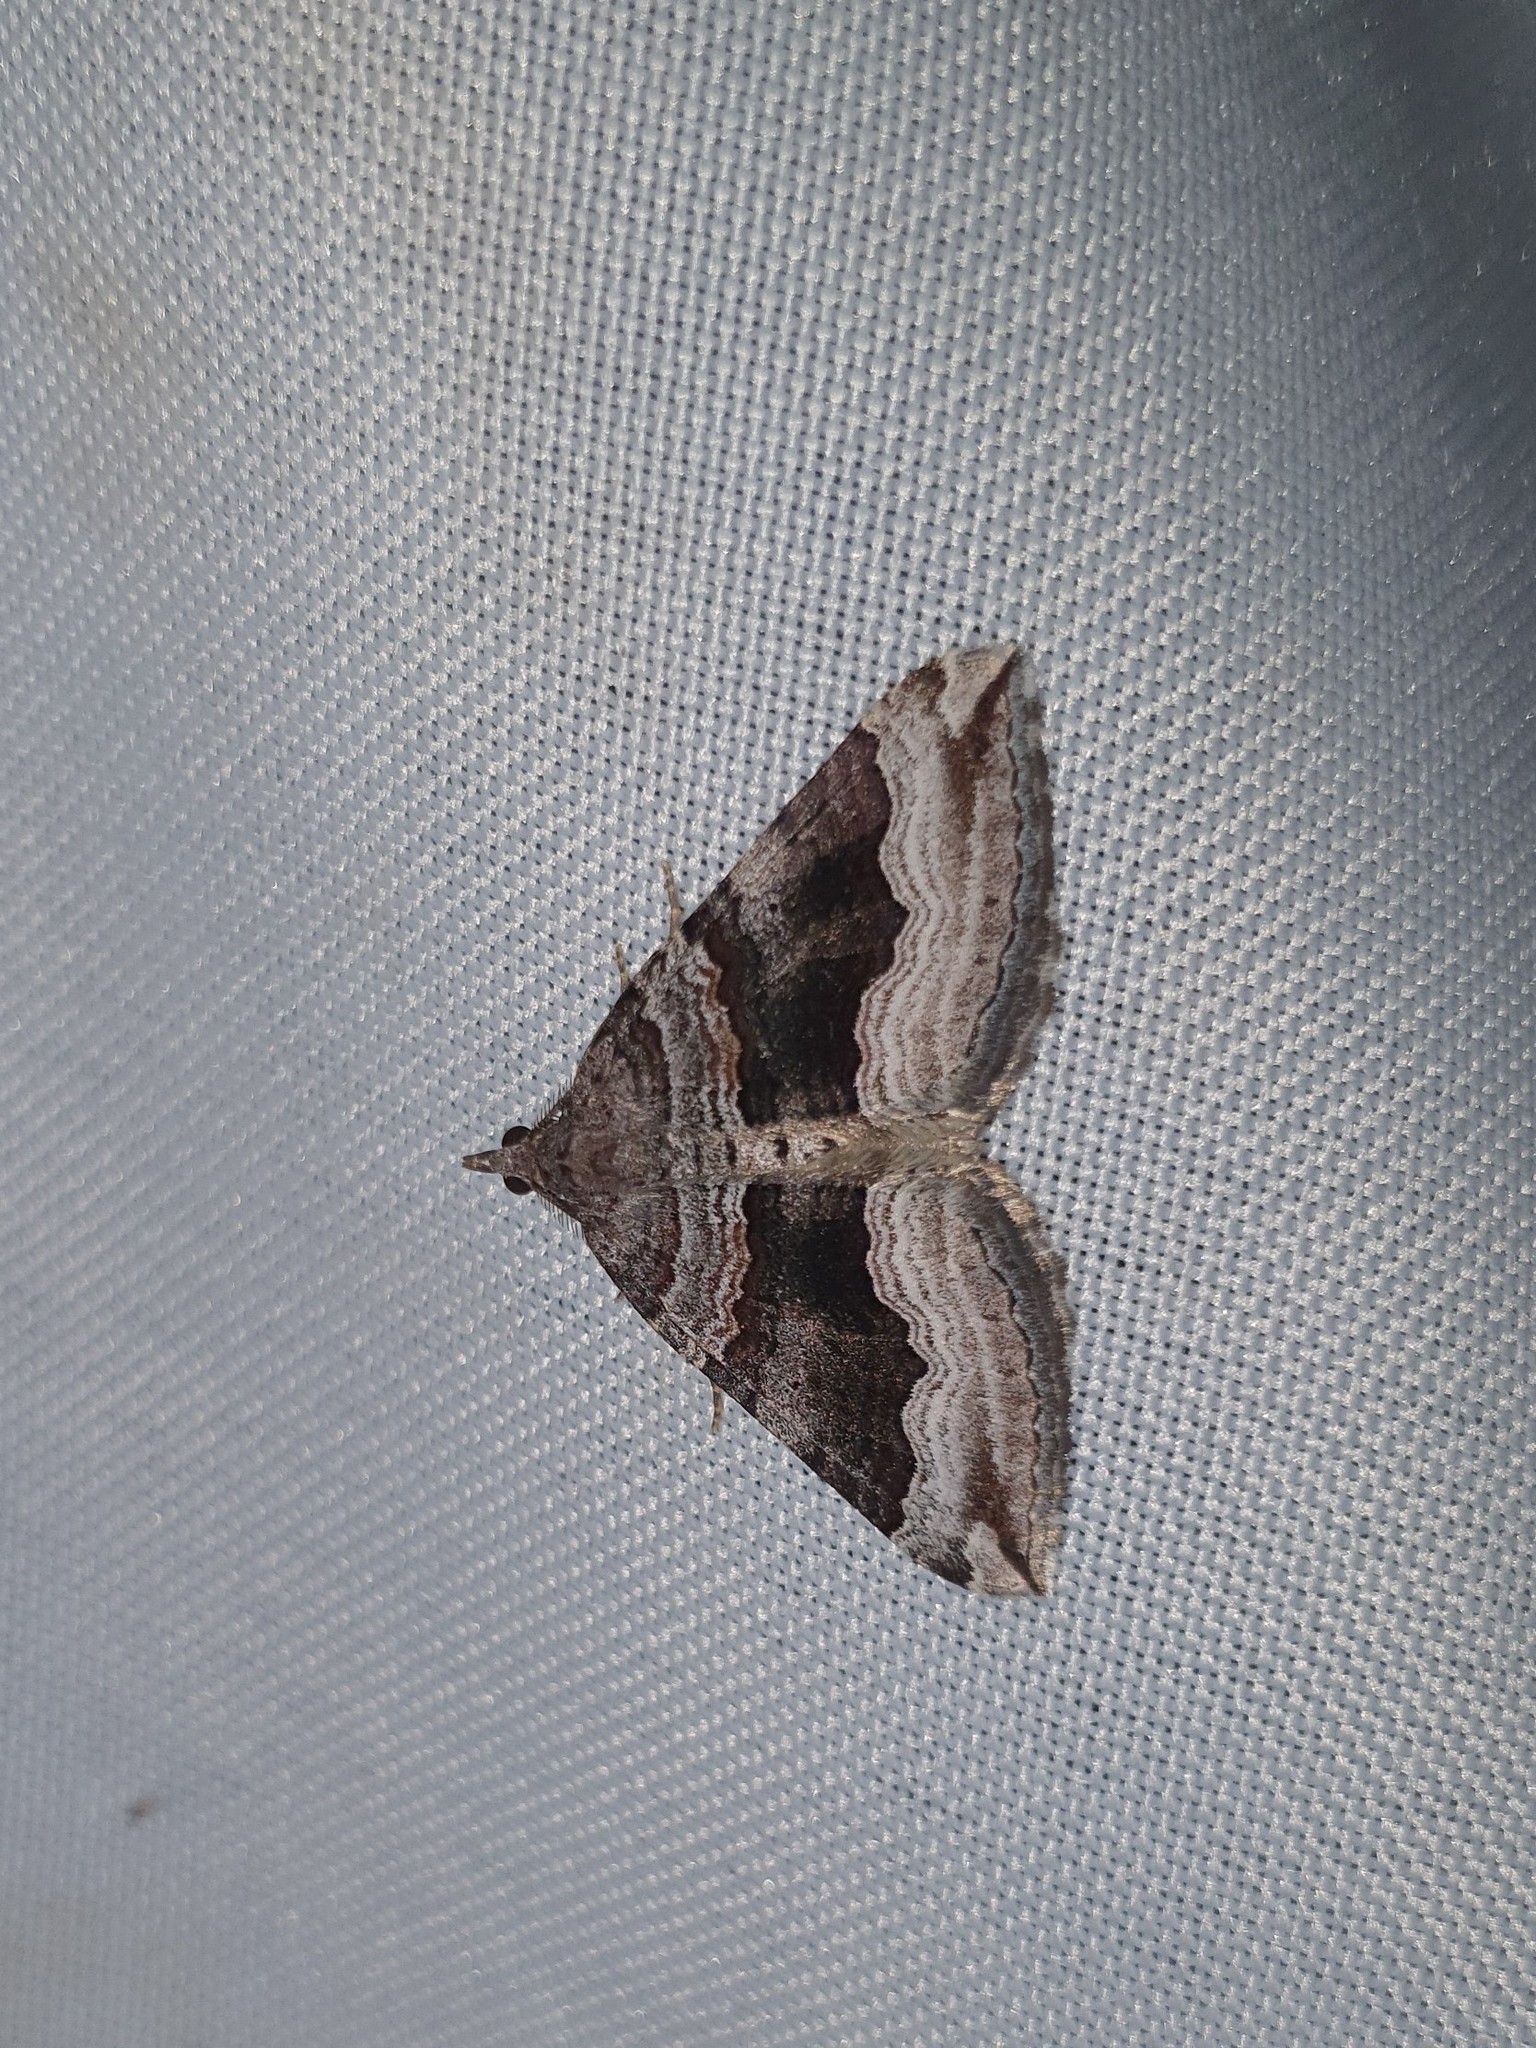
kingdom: Animalia
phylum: Arthropoda
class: Insecta
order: Lepidoptera
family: Geometridae
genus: Scotopteryx
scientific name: Scotopteryx coelinaria
